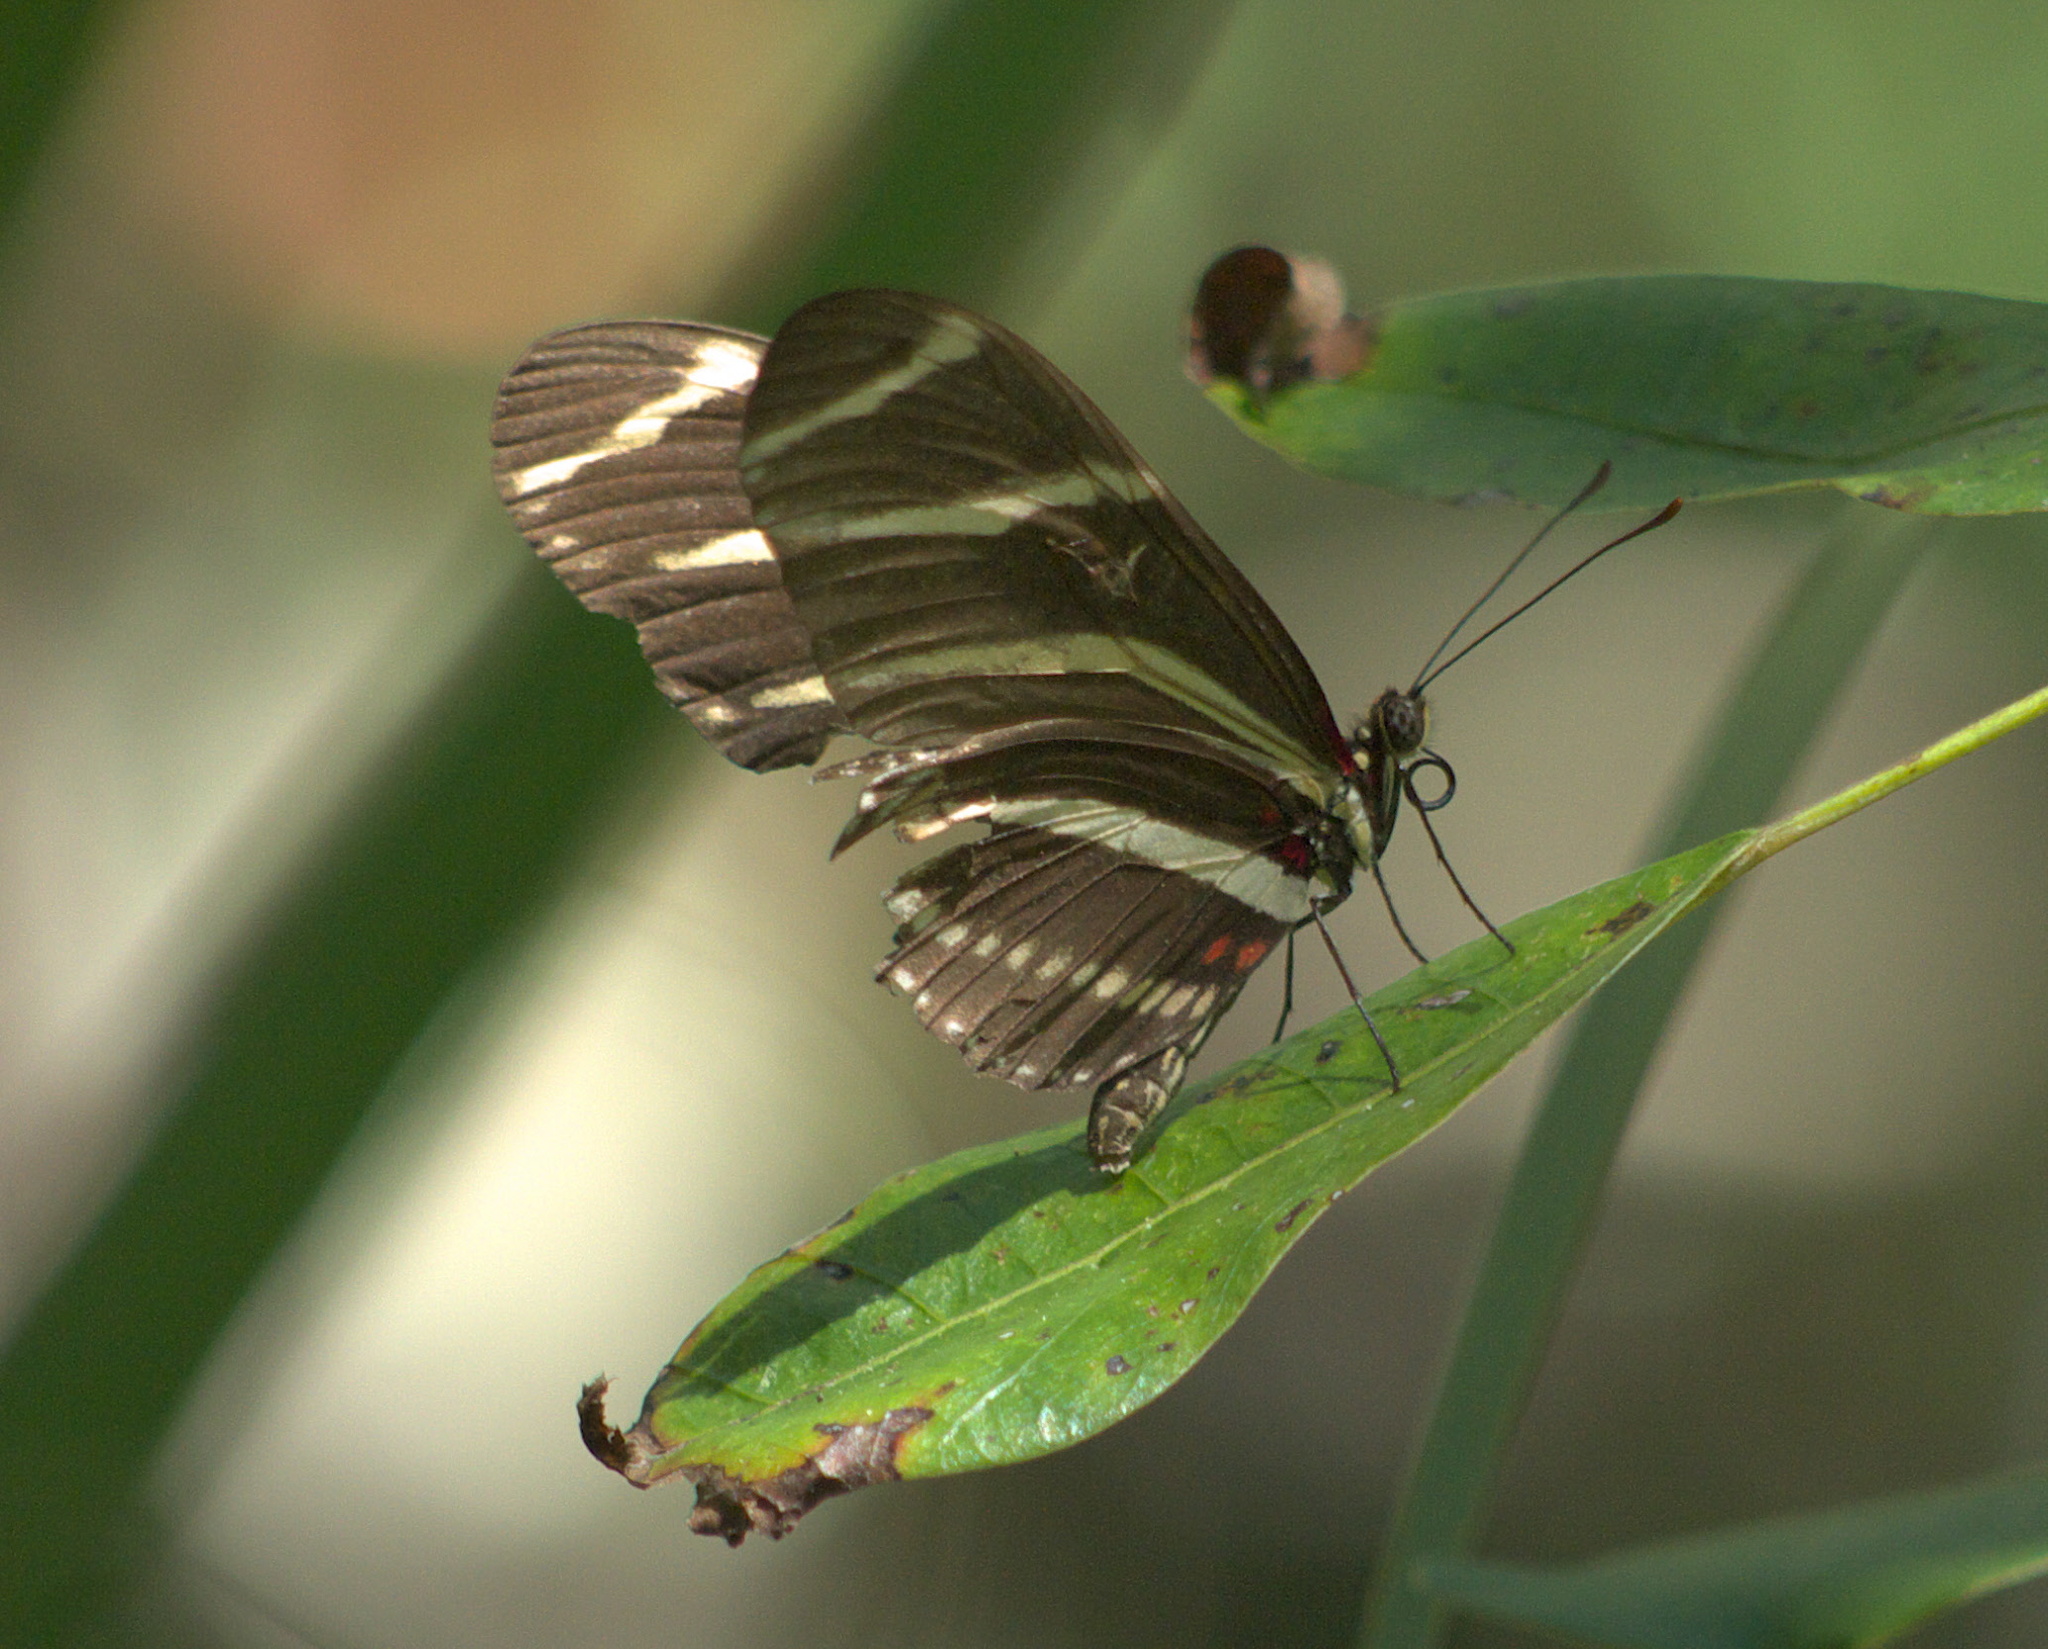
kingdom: Animalia
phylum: Arthropoda
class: Insecta
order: Lepidoptera
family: Nymphalidae
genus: Heliconius
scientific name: Heliconius charithonia
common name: Zebra long wing
